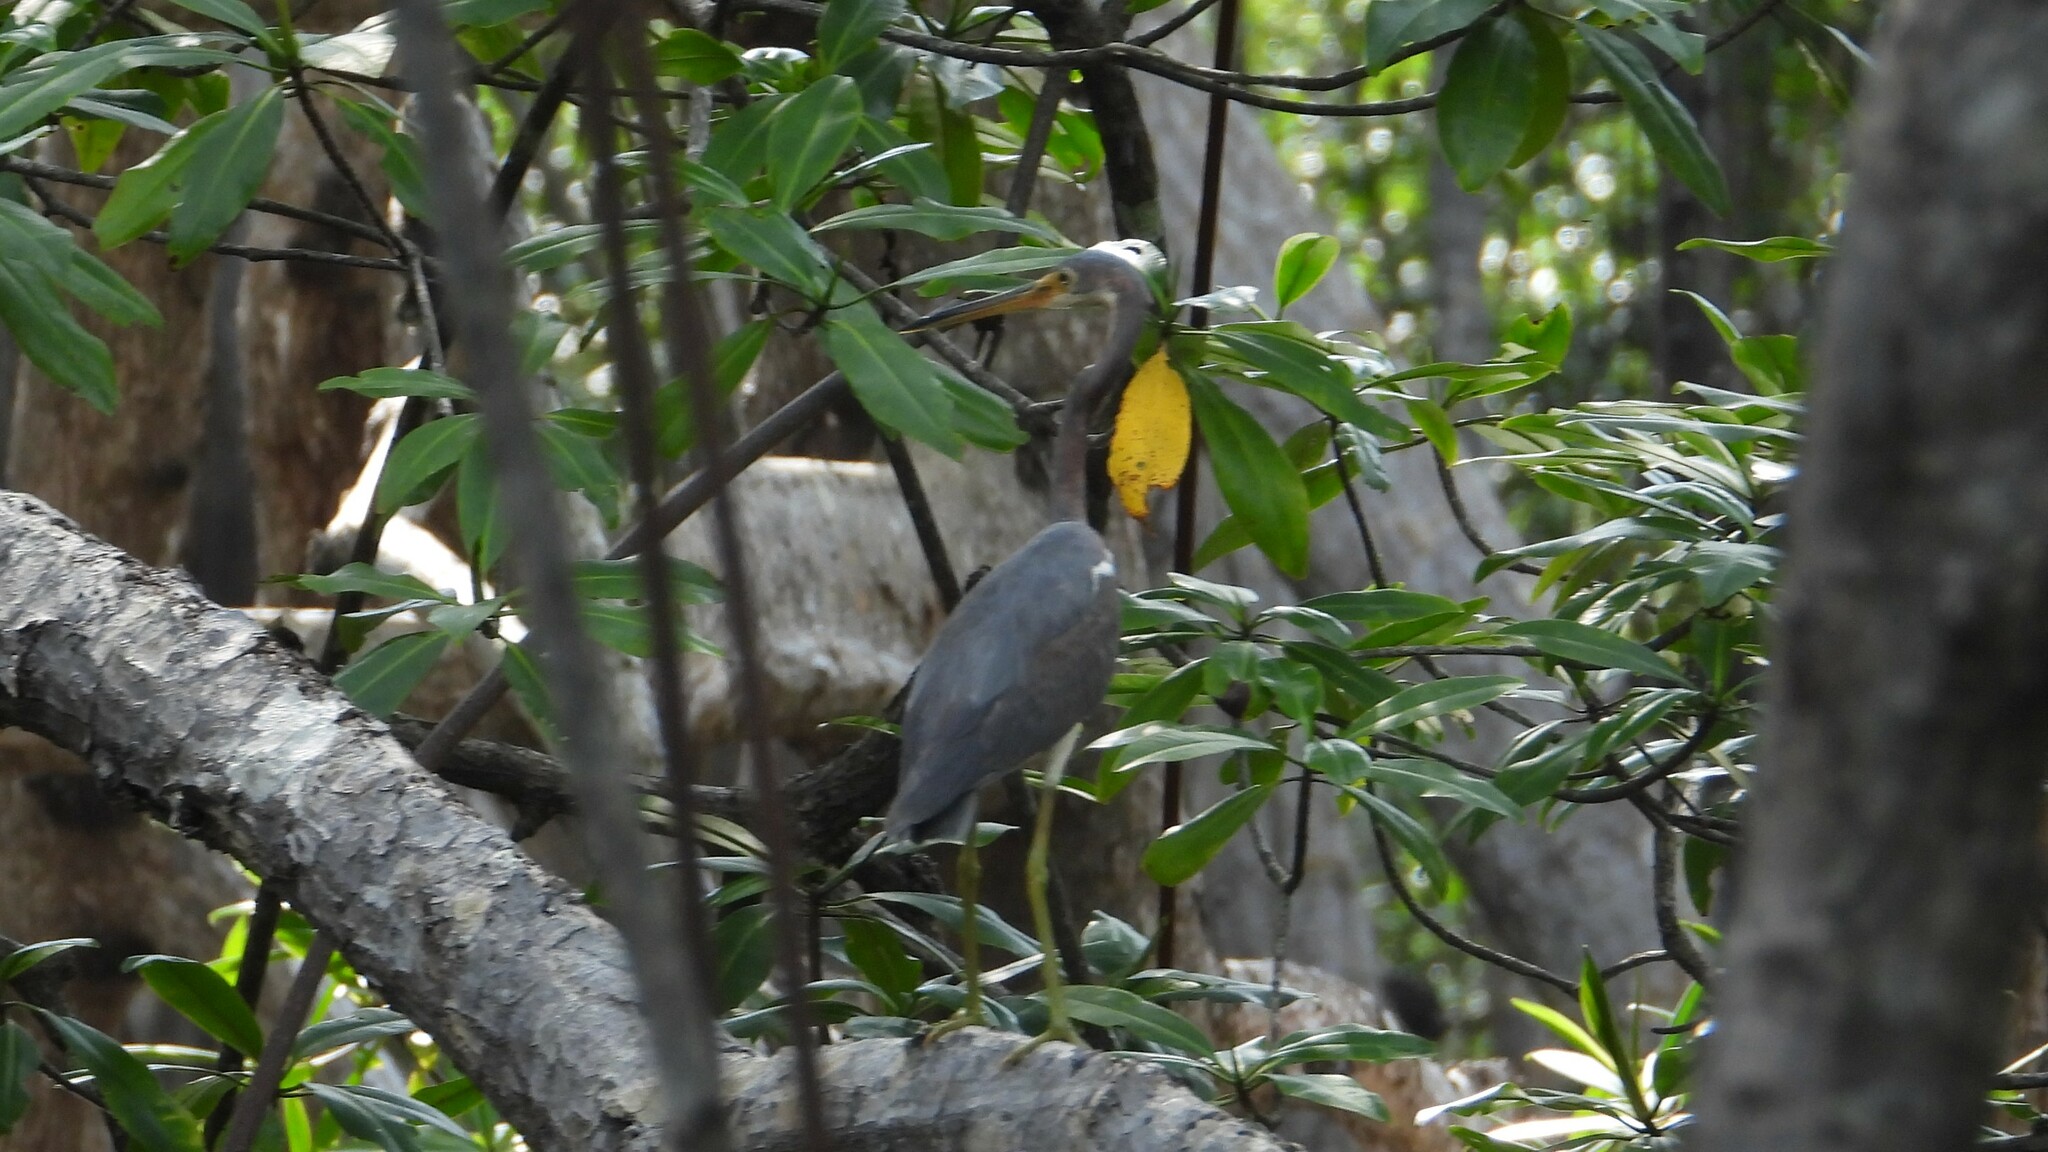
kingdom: Animalia
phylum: Chordata
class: Aves
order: Pelecaniformes
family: Ardeidae
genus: Egretta
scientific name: Egretta tricolor
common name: Tricolored heron
